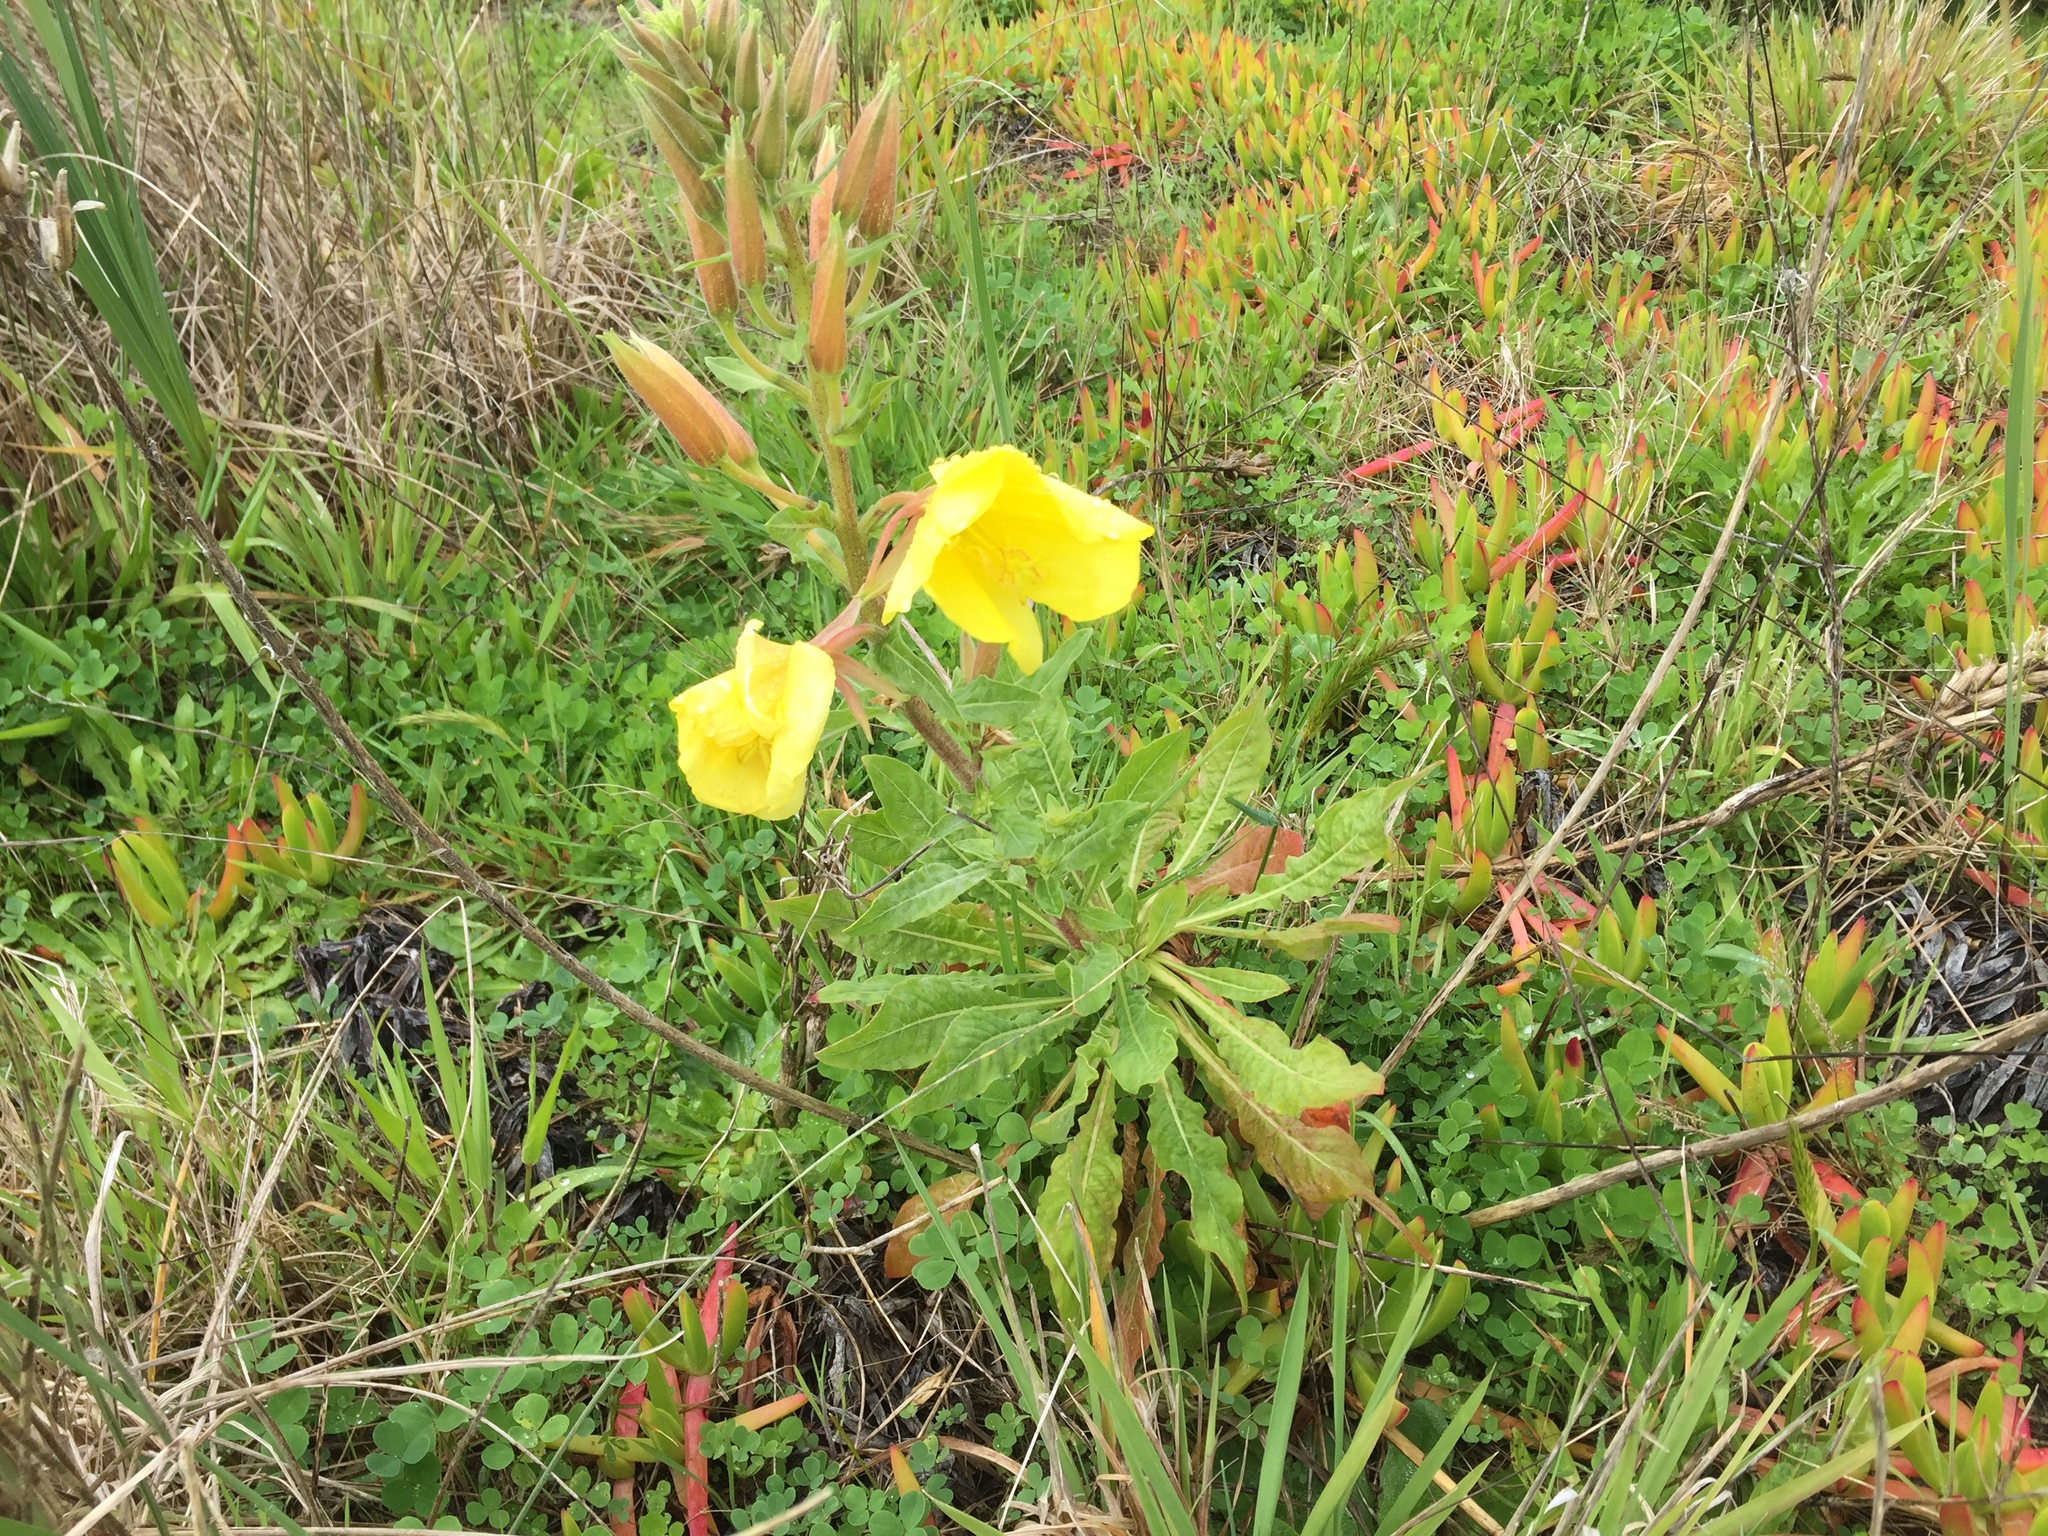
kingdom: Plantae
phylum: Tracheophyta
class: Magnoliopsida
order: Myrtales
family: Onagraceae
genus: Oenothera
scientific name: Oenothera glazioviana
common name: Large-flowered evening-primrose
